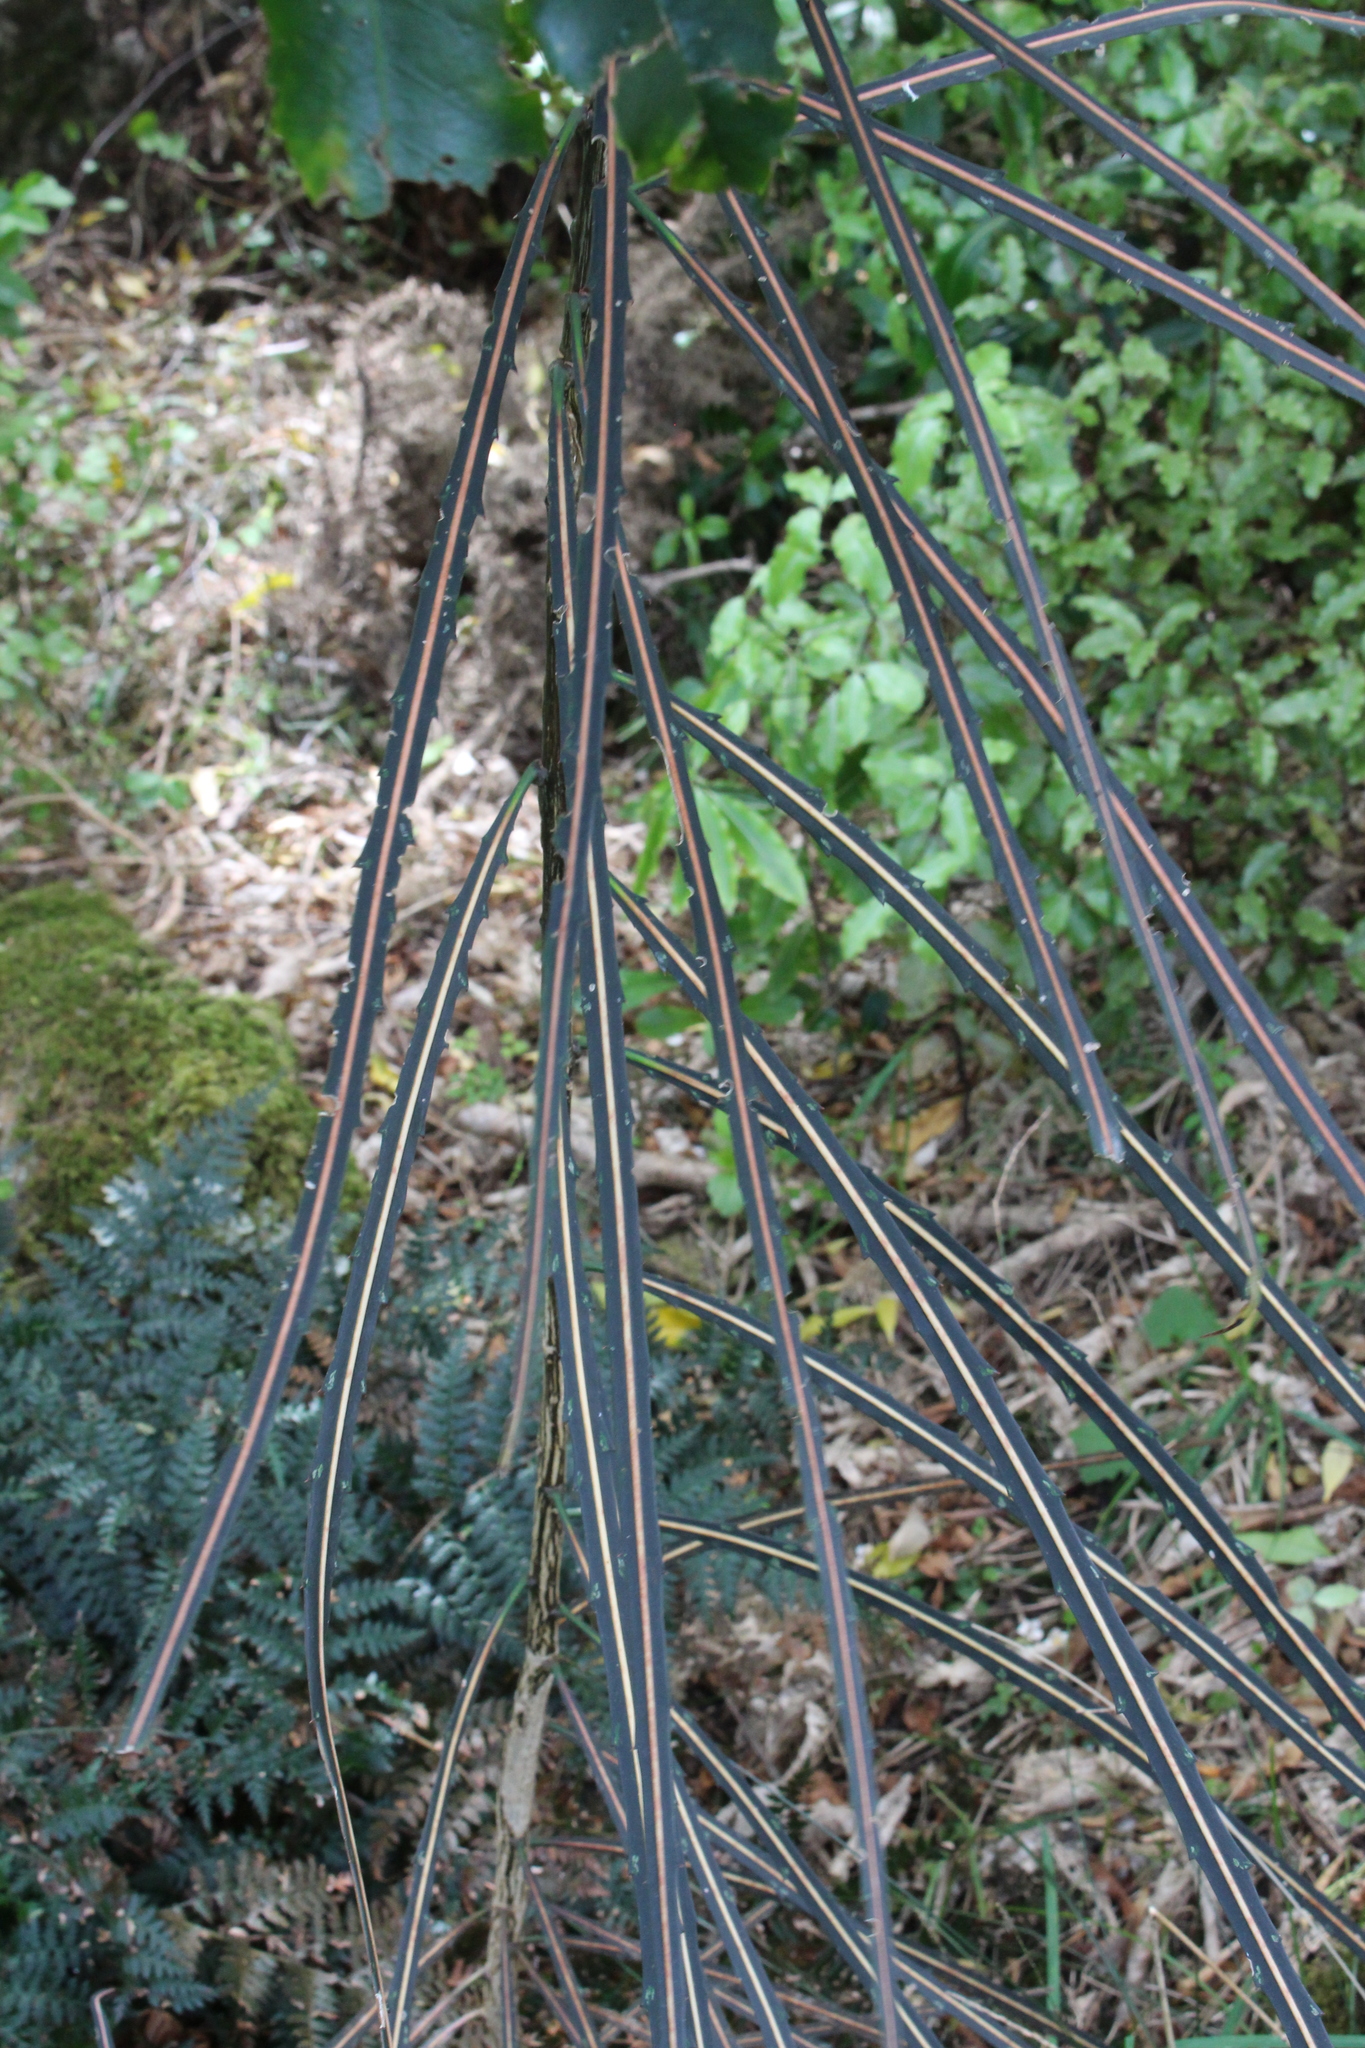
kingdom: Plantae
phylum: Tracheophyta
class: Magnoliopsida
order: Apiales
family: Araliaceae
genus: Pseudopanax
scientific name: Pseudopanax crassifolius
